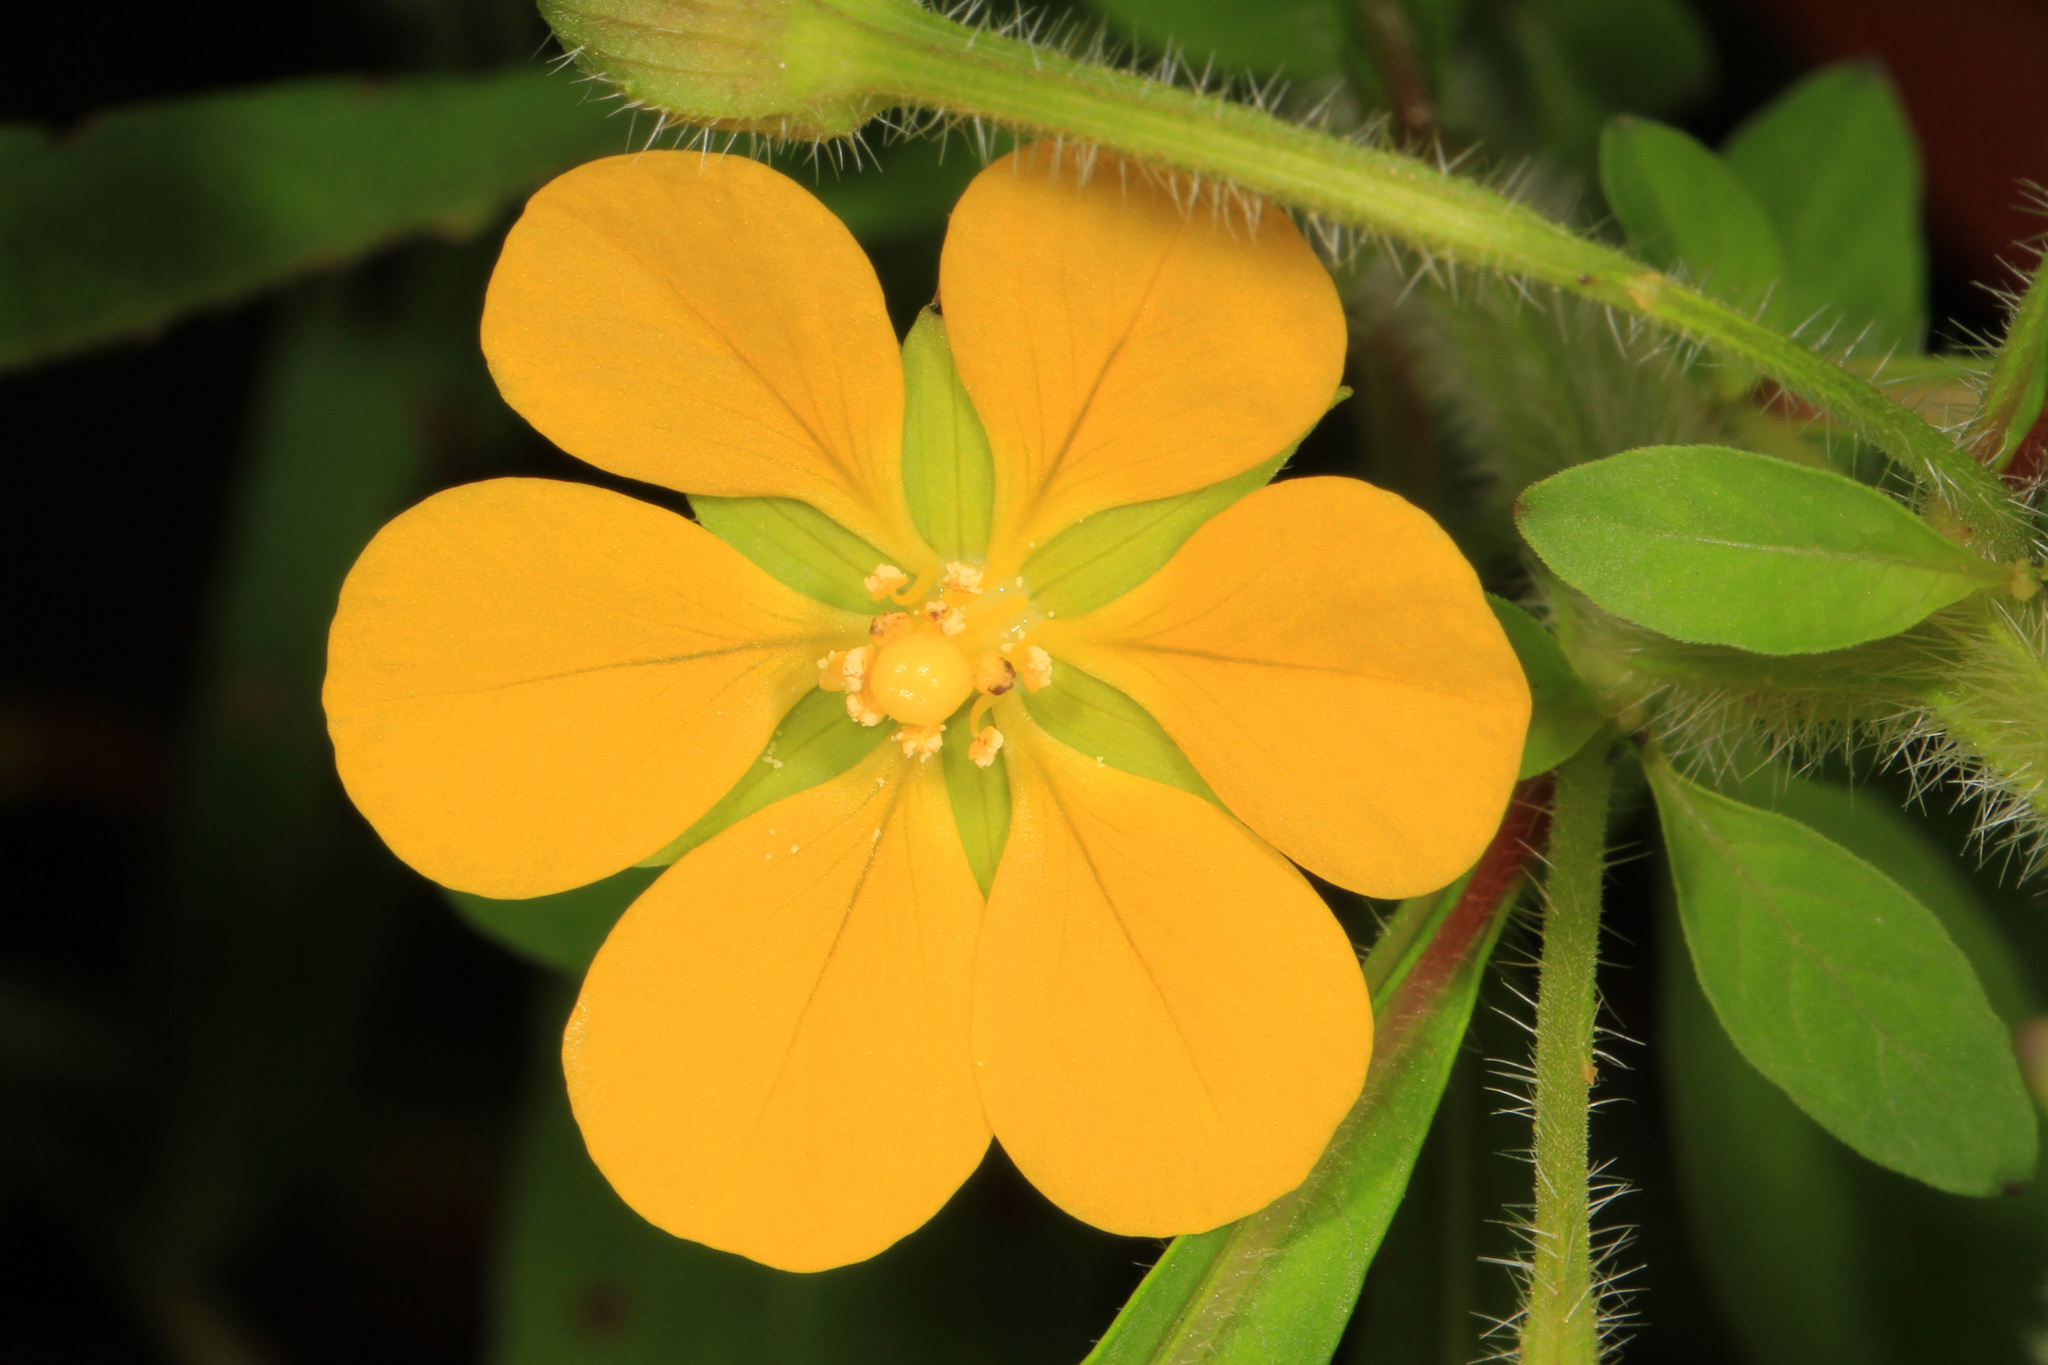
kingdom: Plantae
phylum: Tracheophyta
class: Magnoliopsida
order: Myrtales
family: Onagraceae
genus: Ludwigia
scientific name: Ludwigia leptocarpa
